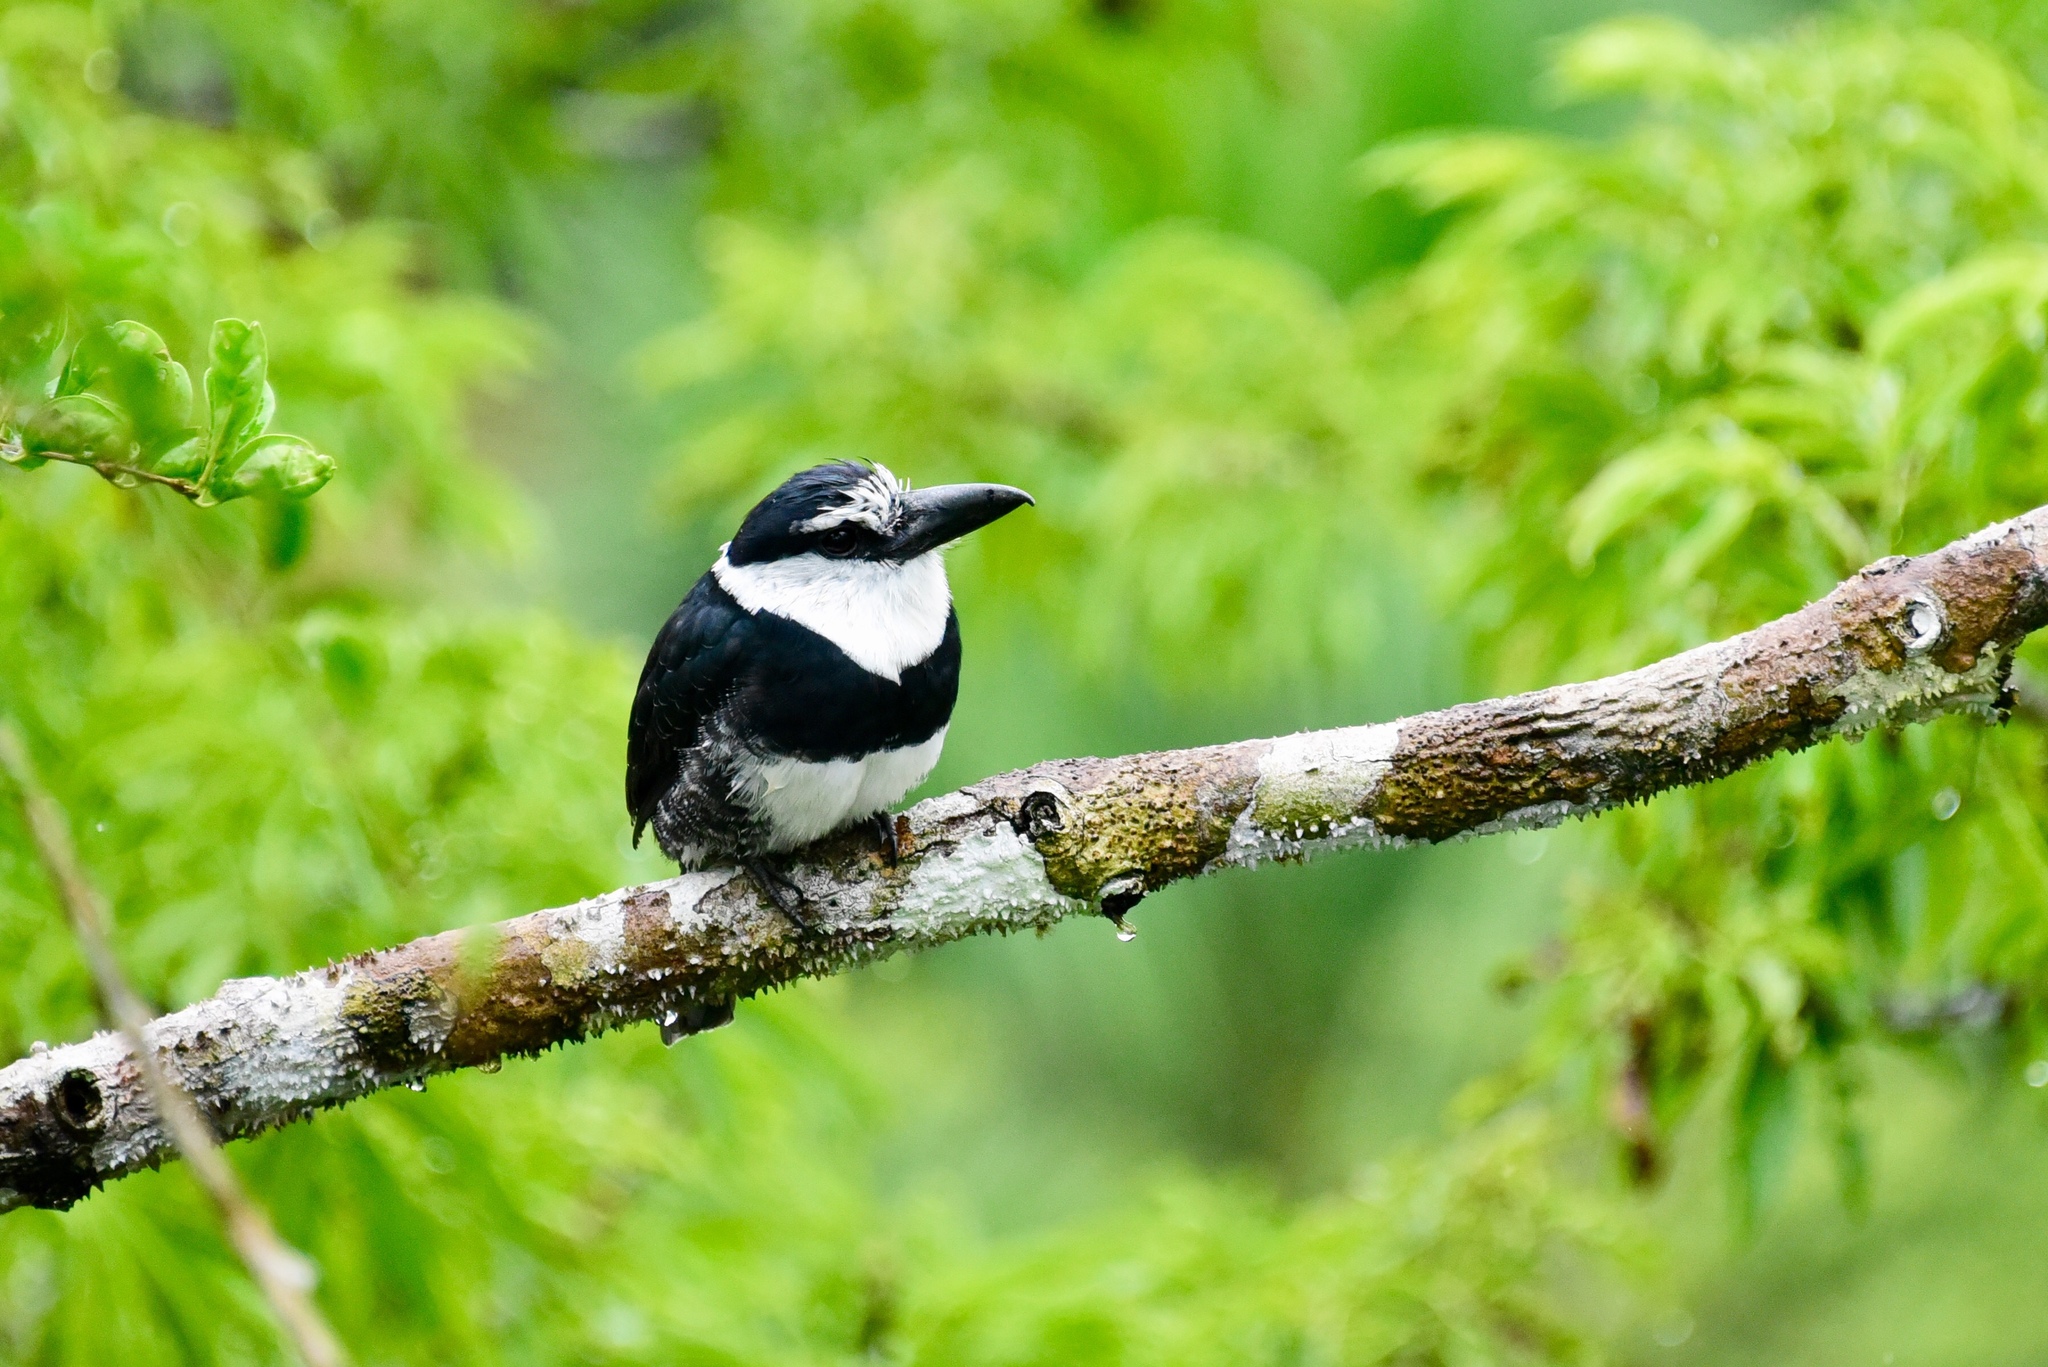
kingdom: Animalia
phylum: Chordata
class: Aves
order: Piciformes
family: Bucconidae
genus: Notharchus
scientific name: Notharchus hyperrhynchus
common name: White-necked puffbird
